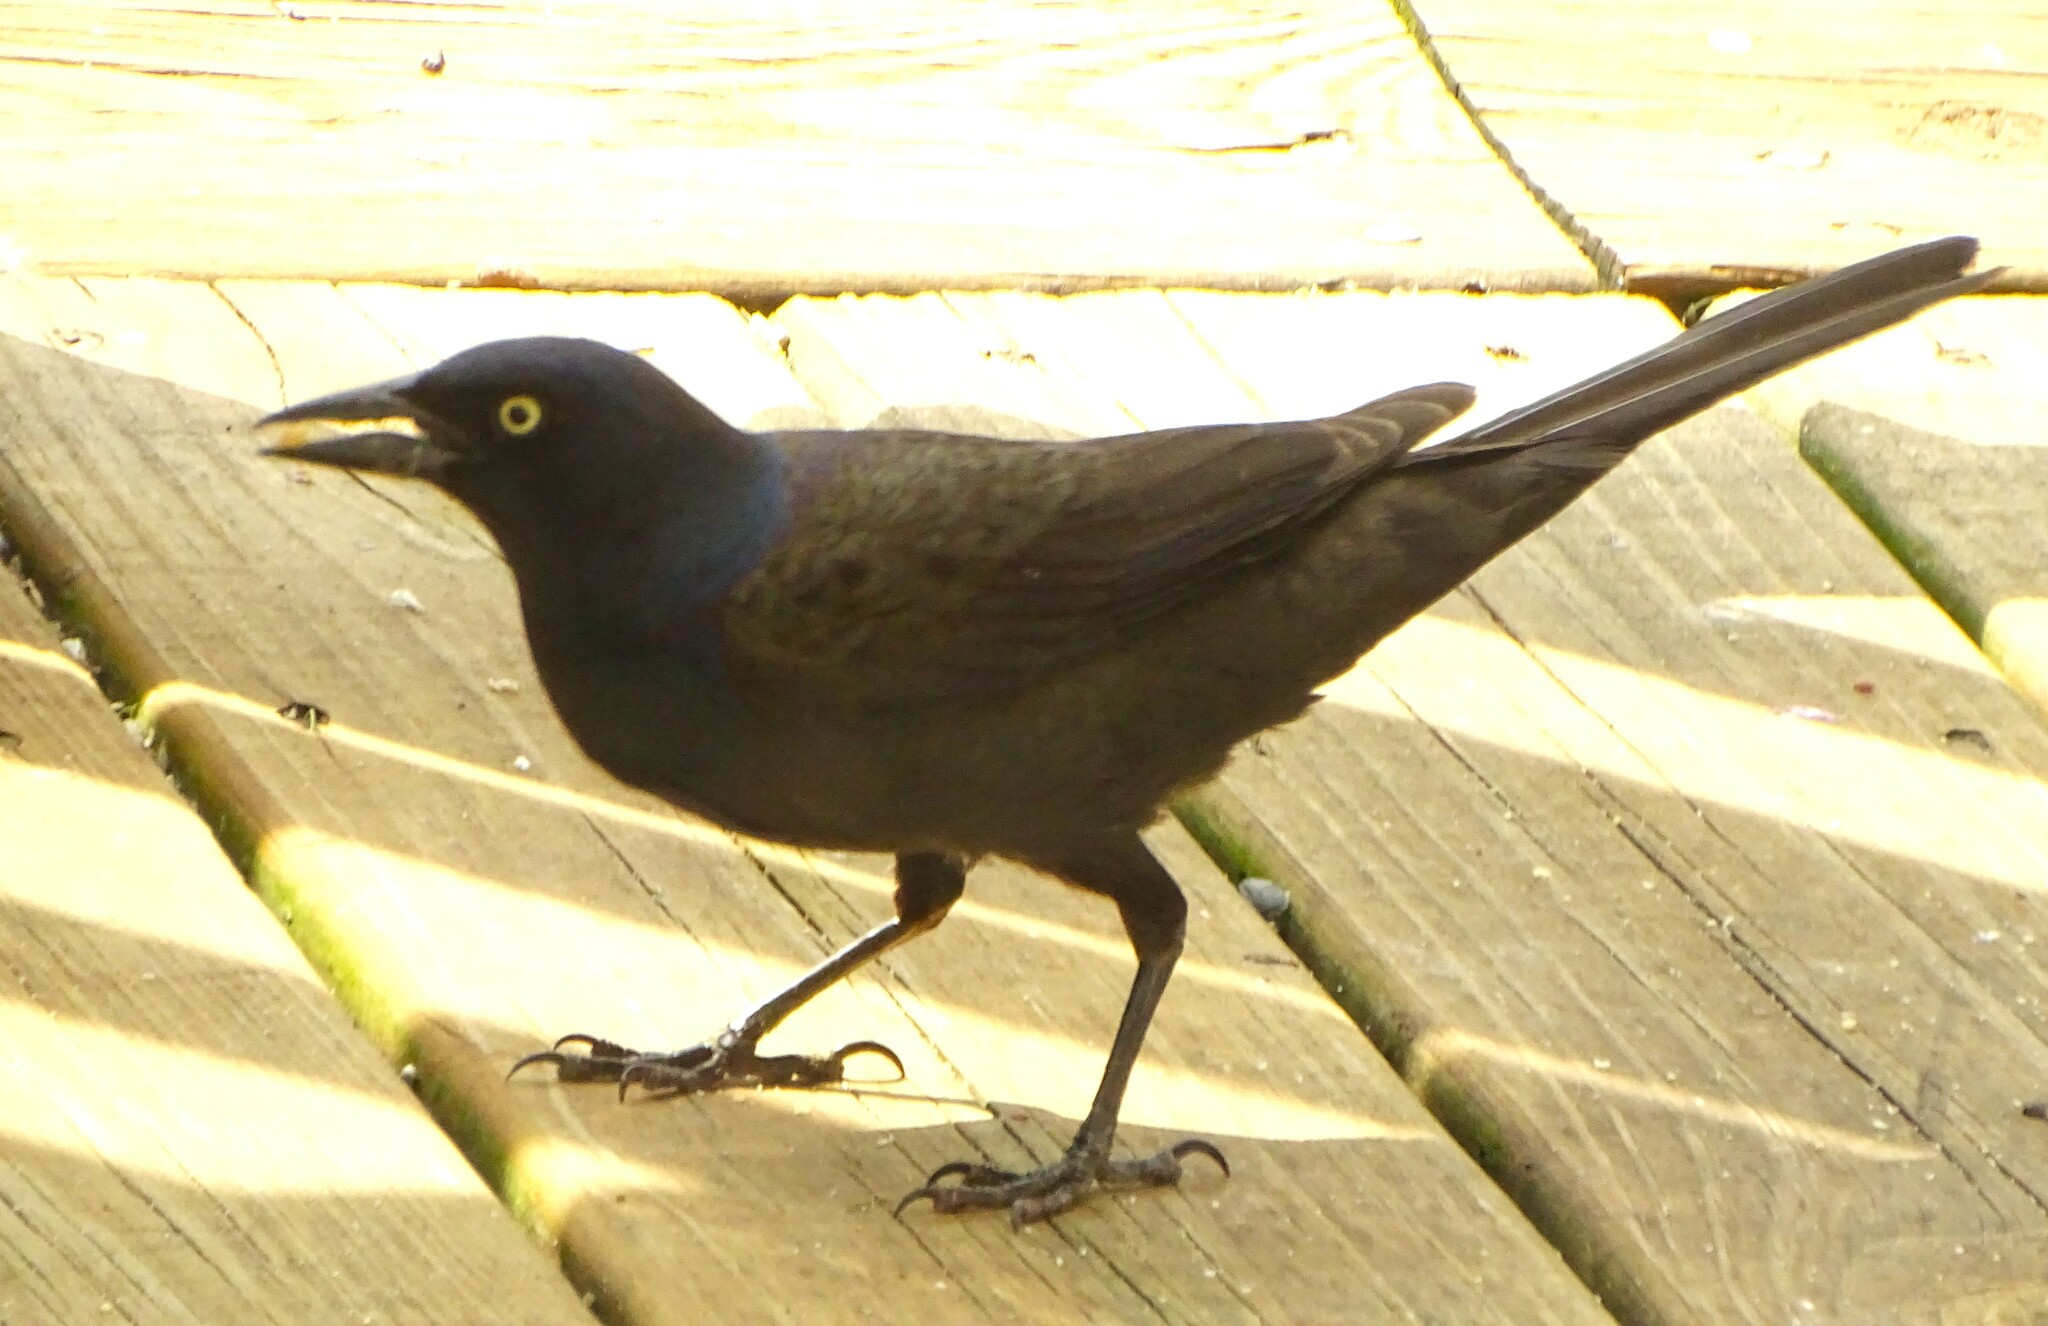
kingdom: Animalia
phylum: Chordata
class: Aves
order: Passeriformes
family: Icteridae
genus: Quiscalus
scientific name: Quiscalus quiscula
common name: Common grackle
